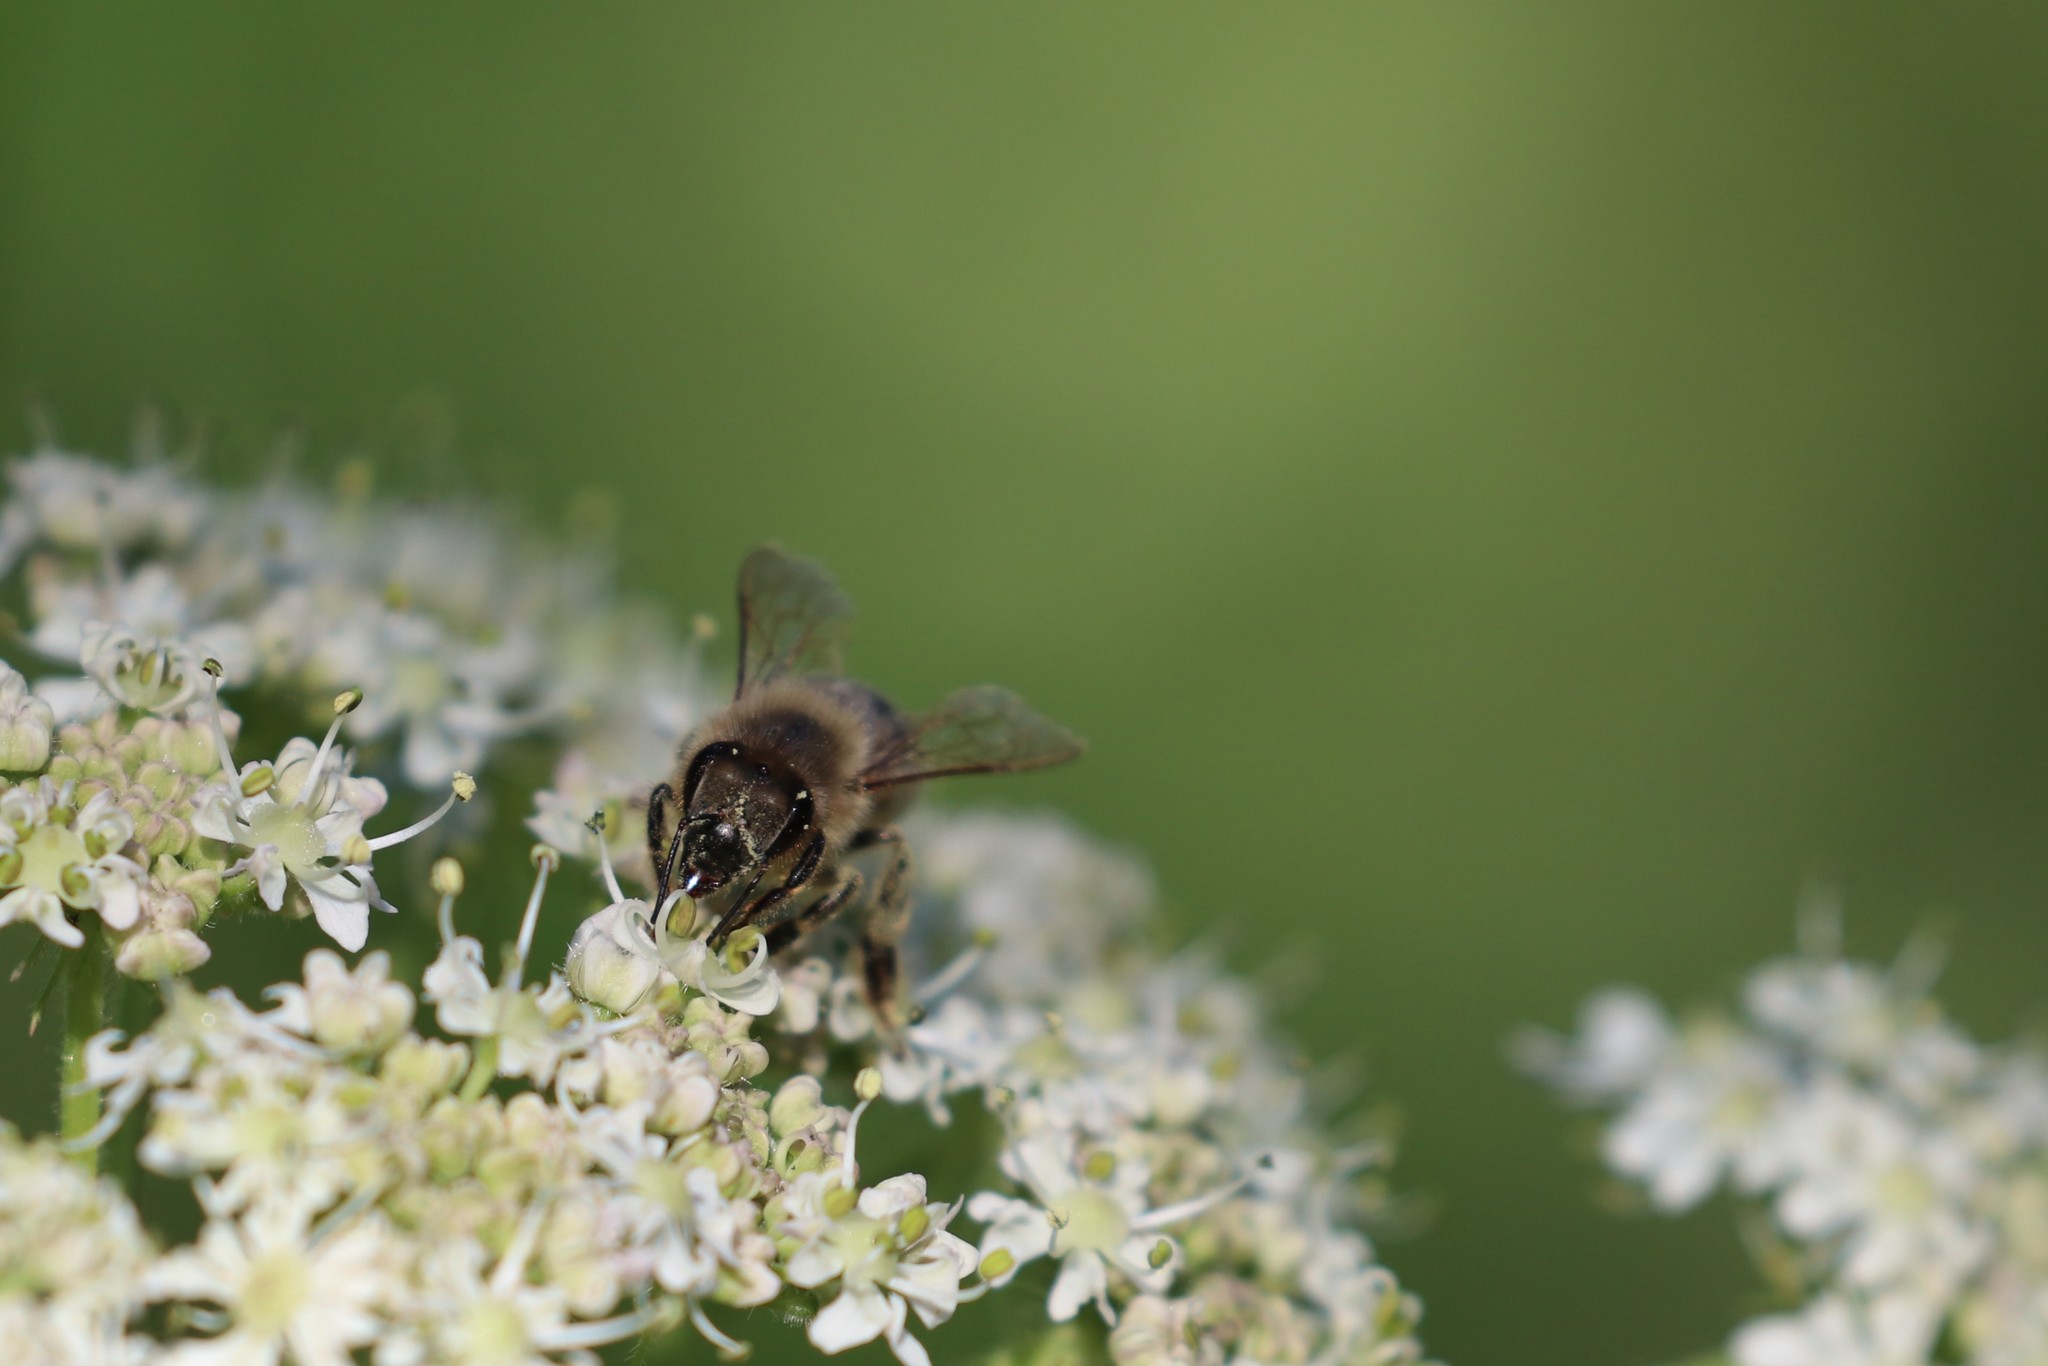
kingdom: Animalia
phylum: Arthropoda
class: Insecta
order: Hymenoptera
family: Apidae
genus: Apis
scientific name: Apis mellifera
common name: Honey bee
